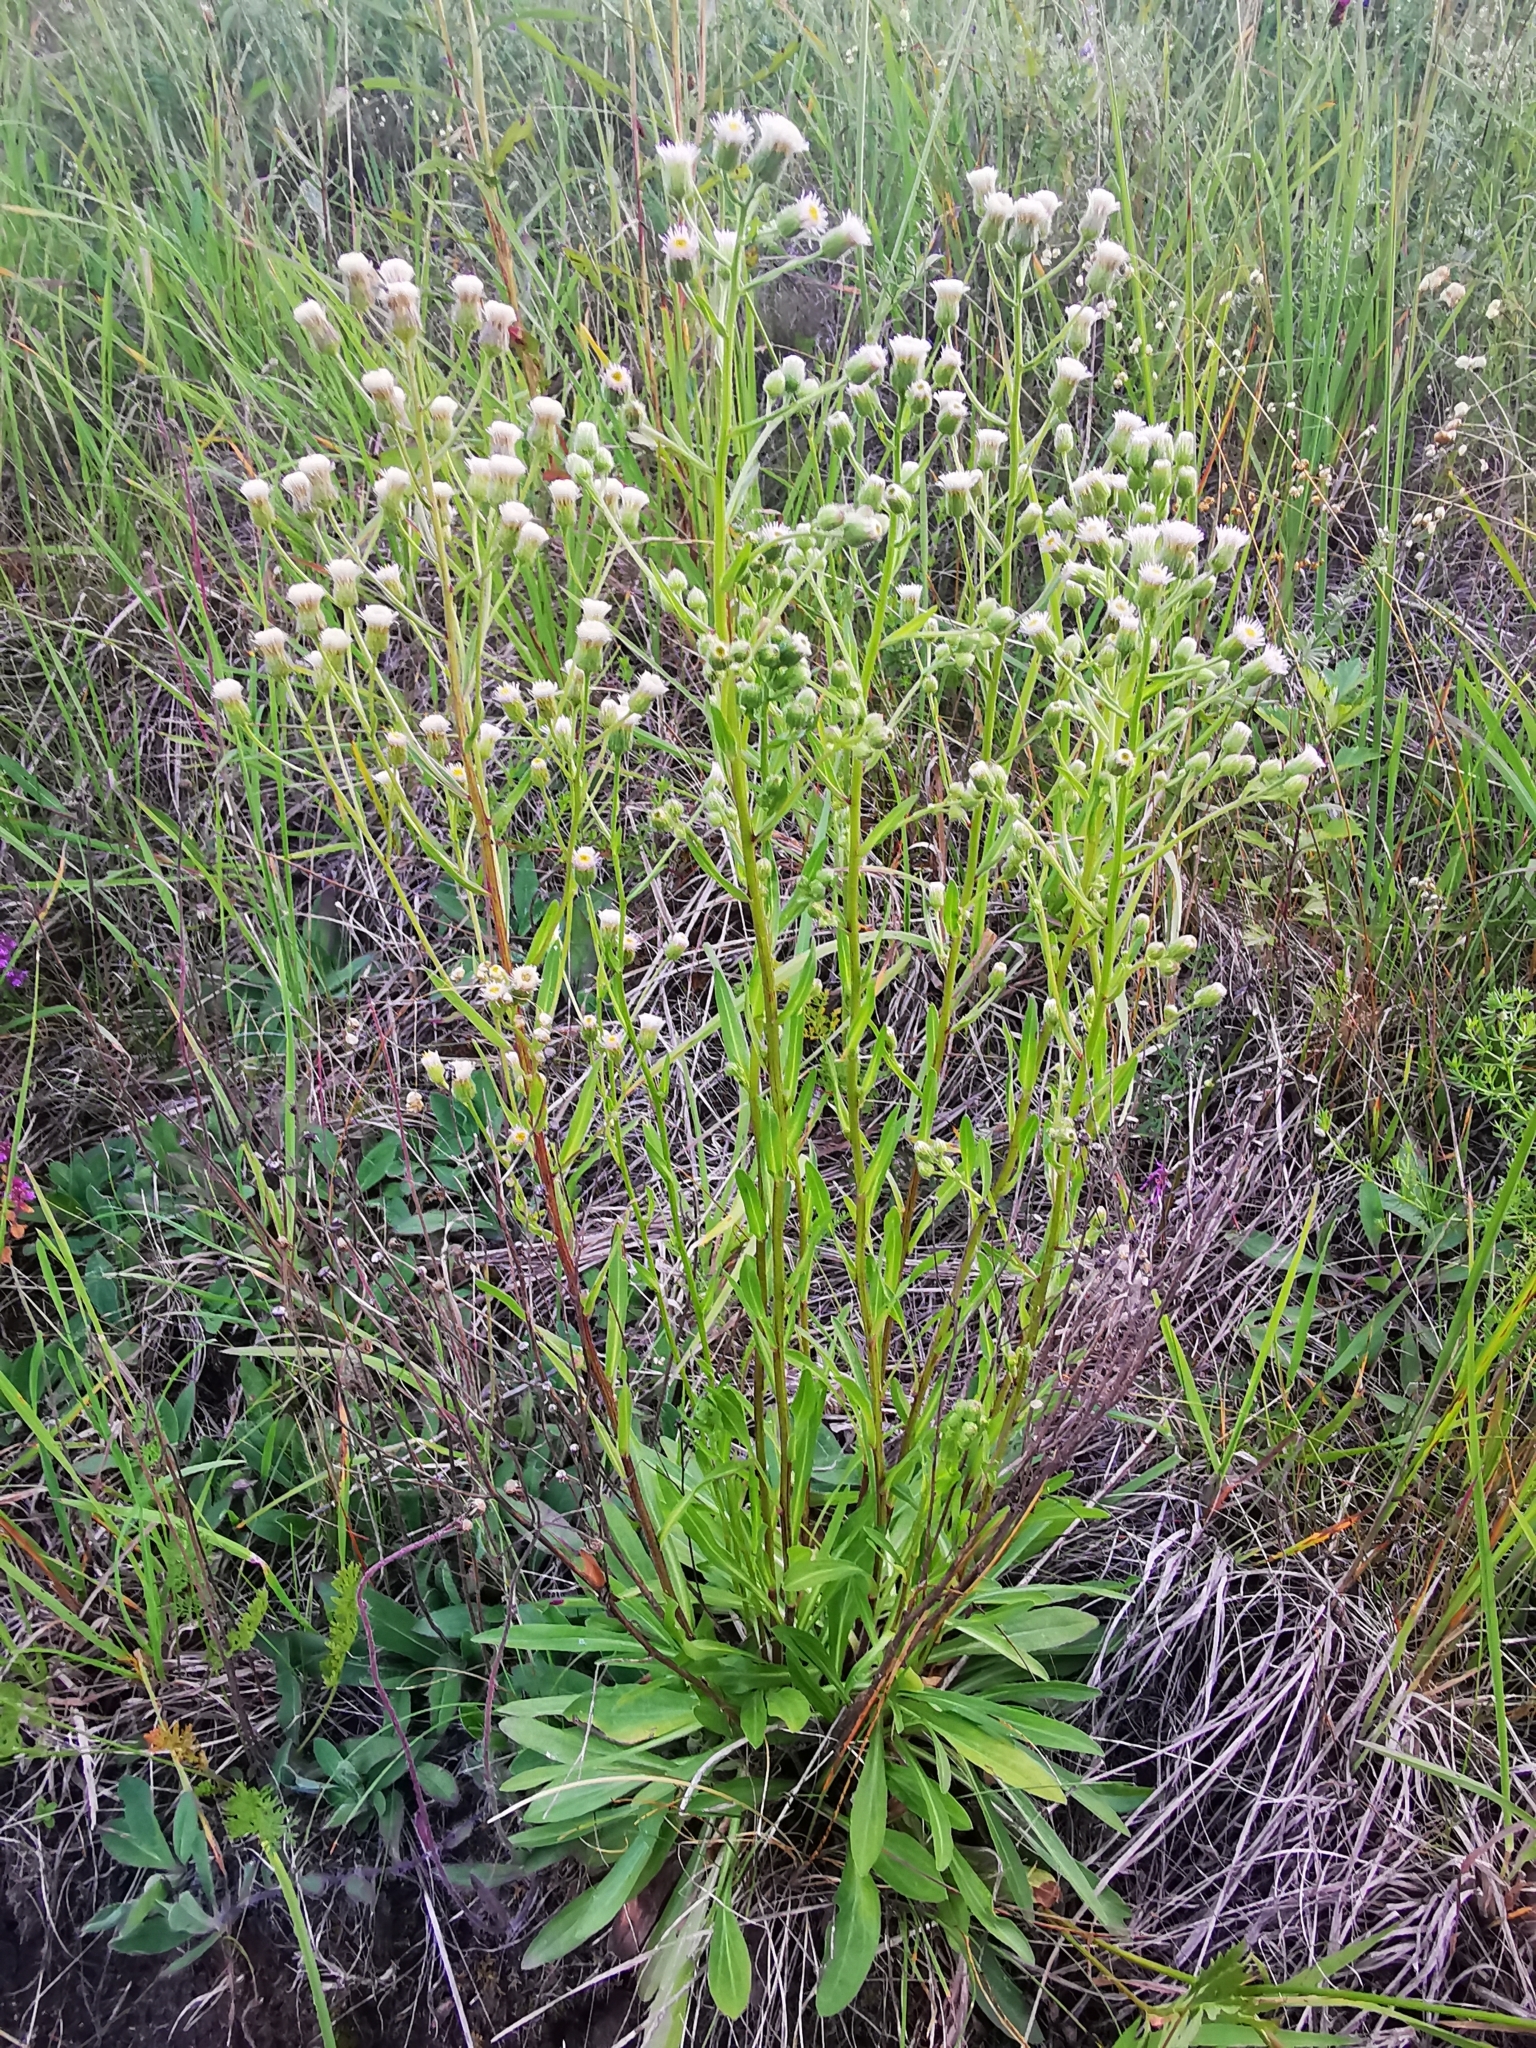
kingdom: Plantae
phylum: Tracheophyta
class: Magnoliopsida
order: Asterales
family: Asteraceae
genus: Erigeron
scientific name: Erigeron acris
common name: Blue fleabane
